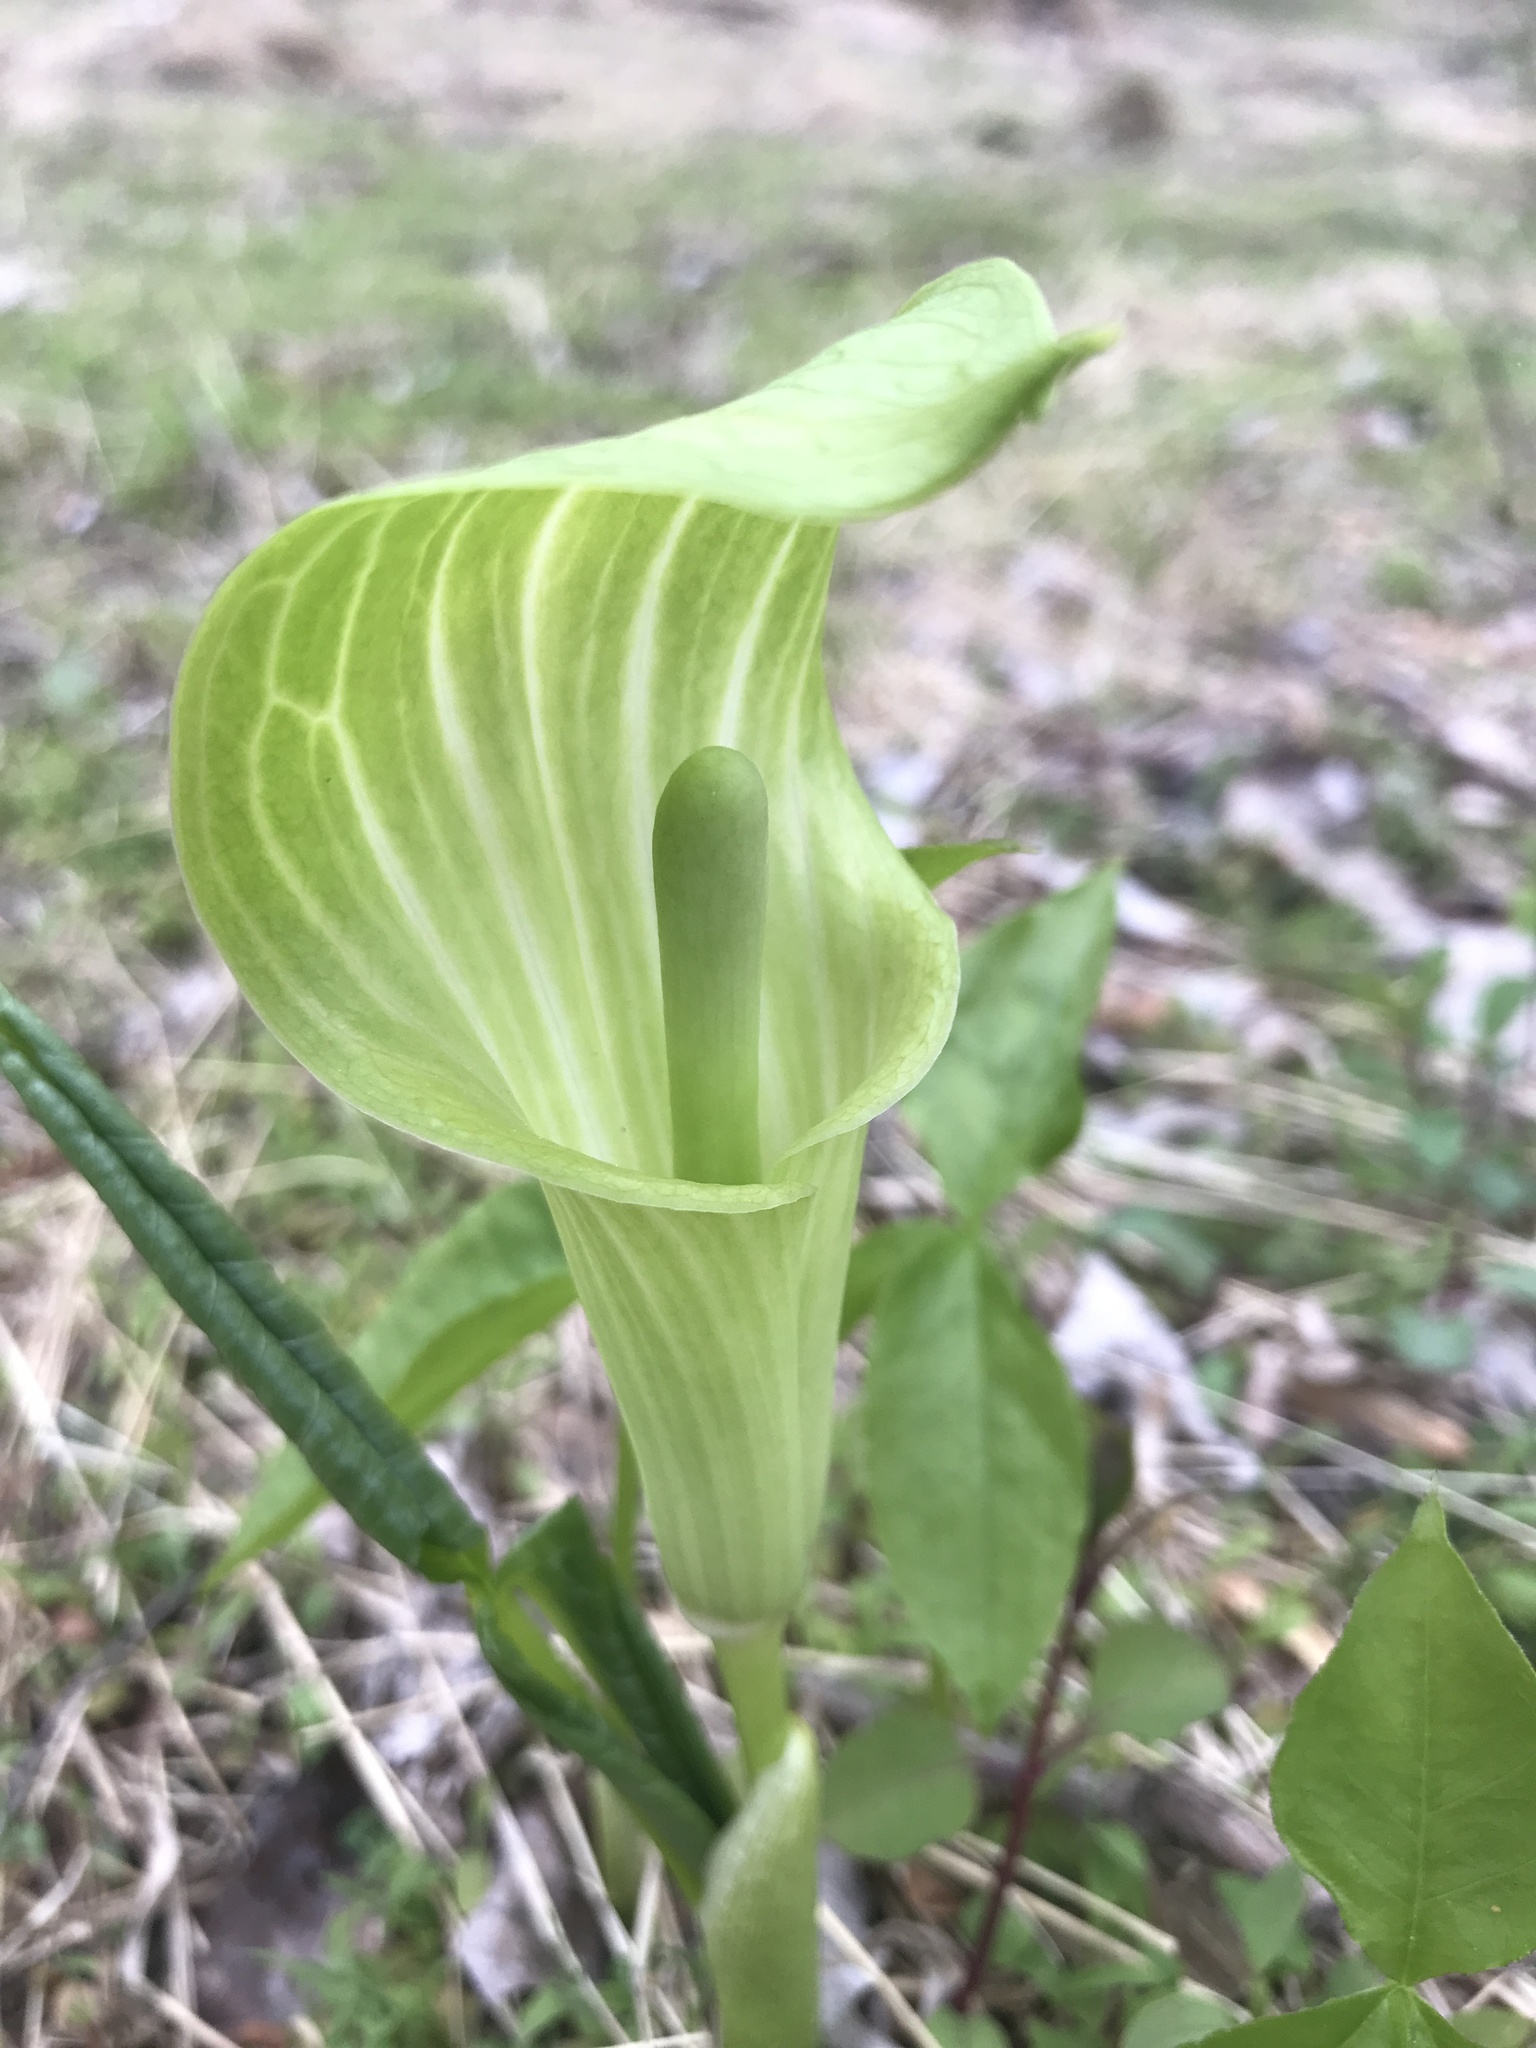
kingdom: Plantae
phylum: Tracheophyta
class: Liliopsida
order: Alismatales
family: Araceae
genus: Arisaema
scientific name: Arisaema triphyllum
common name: Jack-in-the-pulpit
